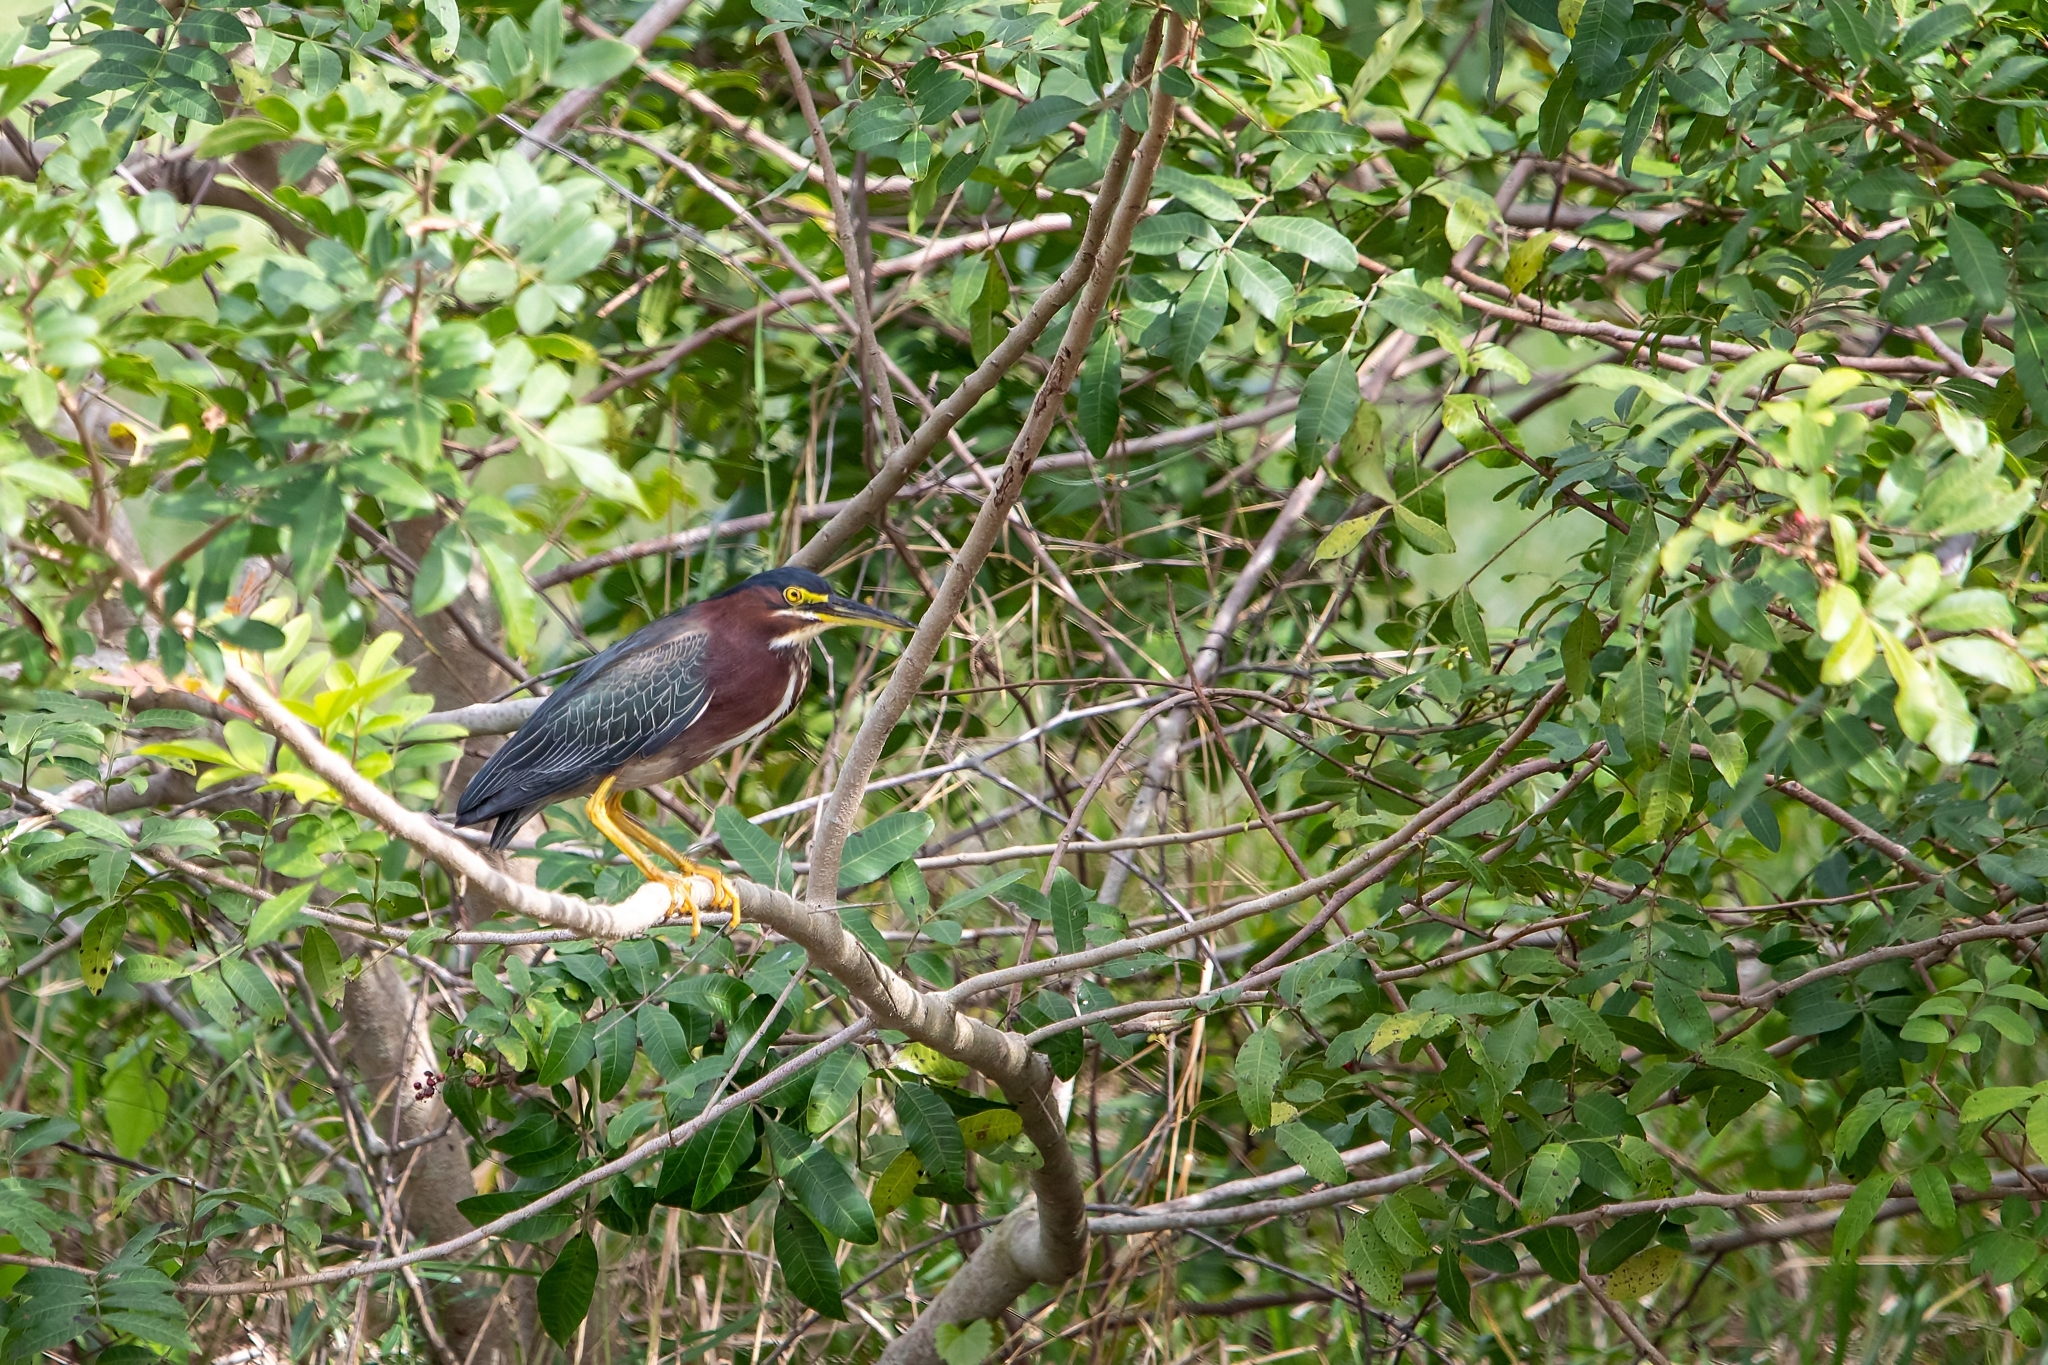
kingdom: Animalia
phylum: Chordata
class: Aves
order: Pelecaniformes
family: Ardeidae
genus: Butorides
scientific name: Butorides virescens
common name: Green heron
